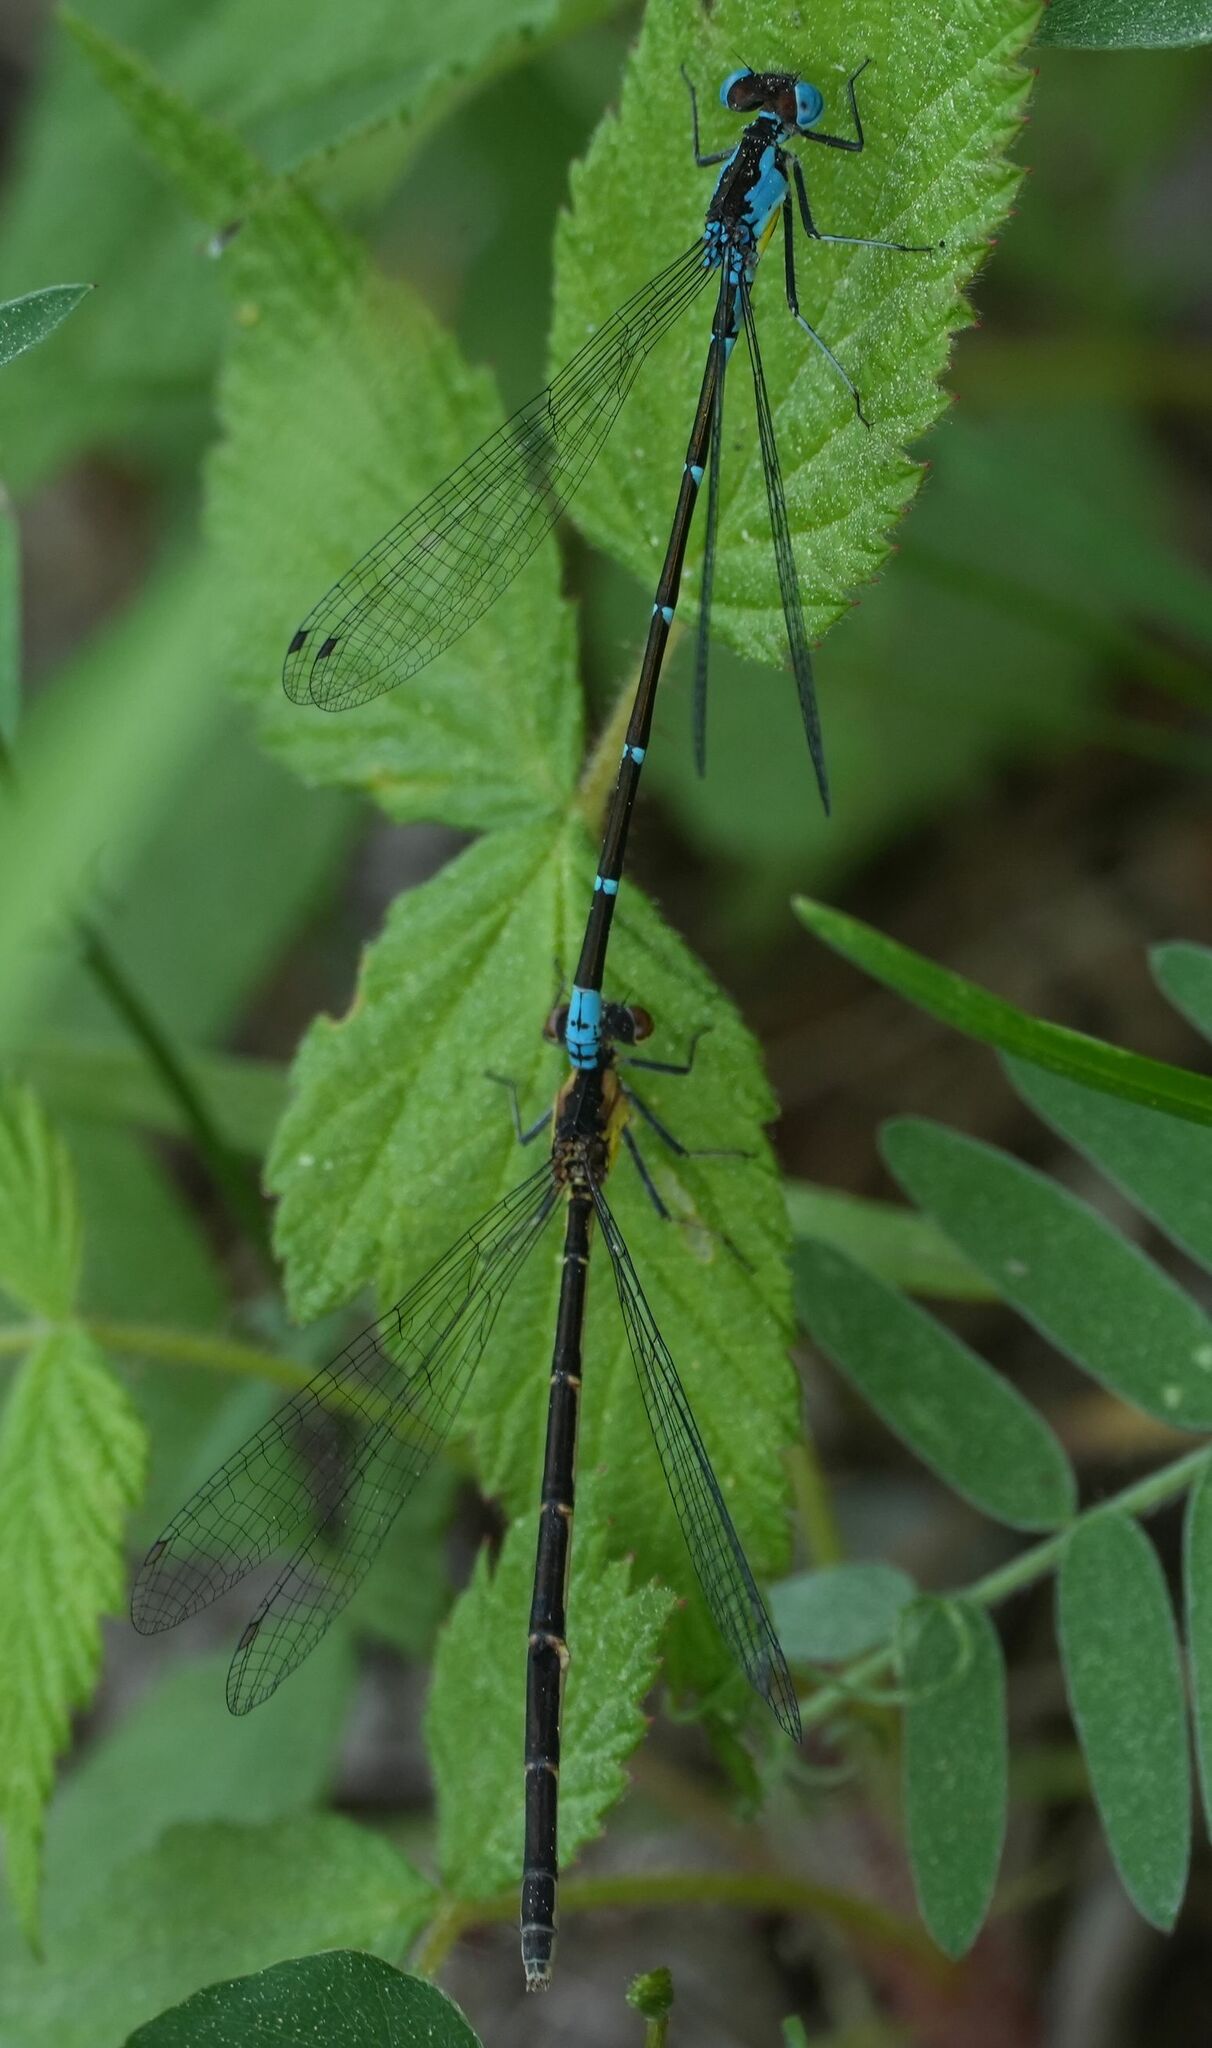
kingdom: Animalia
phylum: Arthropoda
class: Insecta
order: Odonata
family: Coenagrionidae
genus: Chromagrion
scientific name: Chromagrion conditum
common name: Aurora damsel
